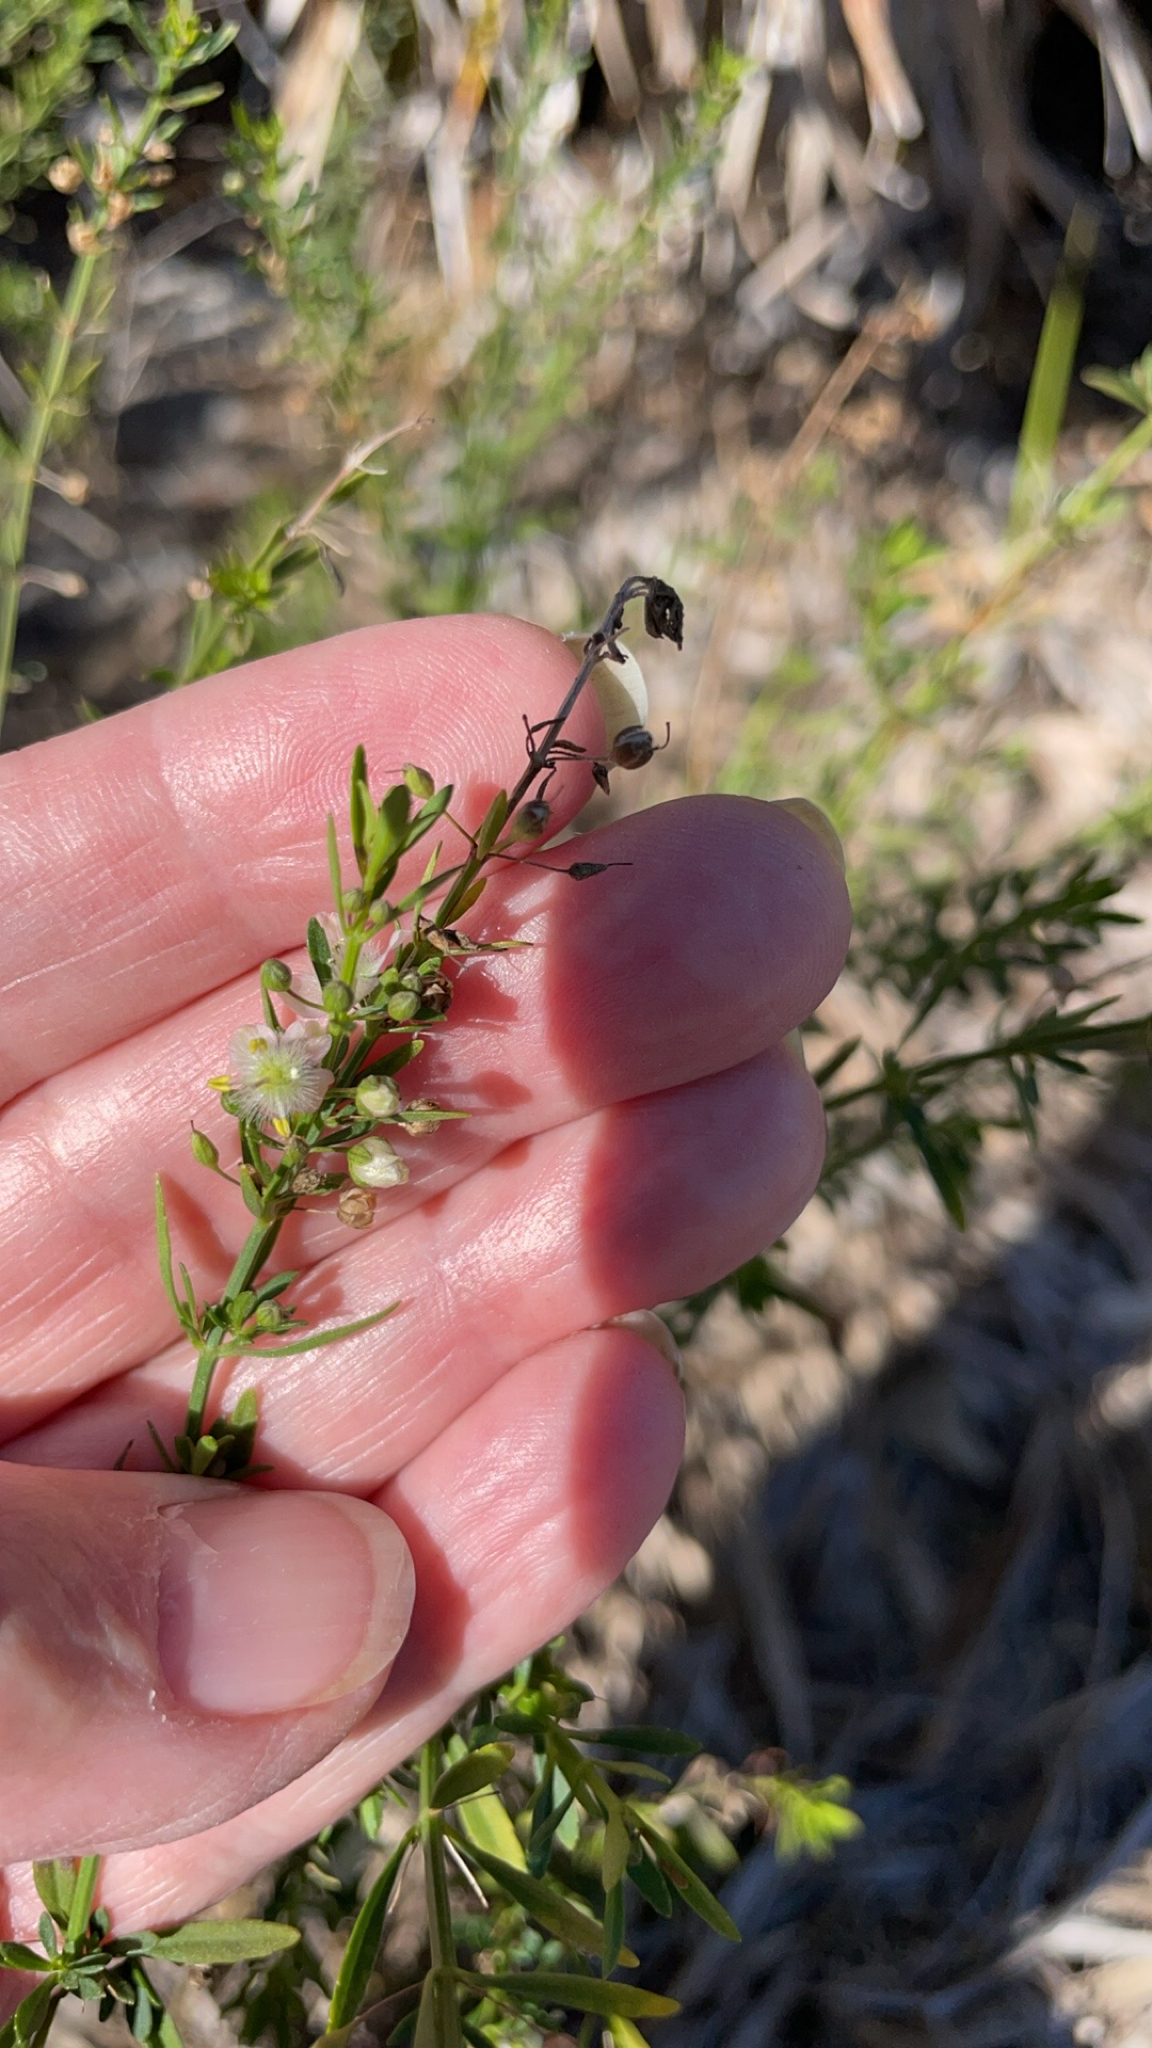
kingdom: Plantae
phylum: Tracheophyta
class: Magnoliopsida
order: Lamiales
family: Plantaginaceae
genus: Scoparia
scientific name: Scoparia dulcis
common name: Scoparia-weed
